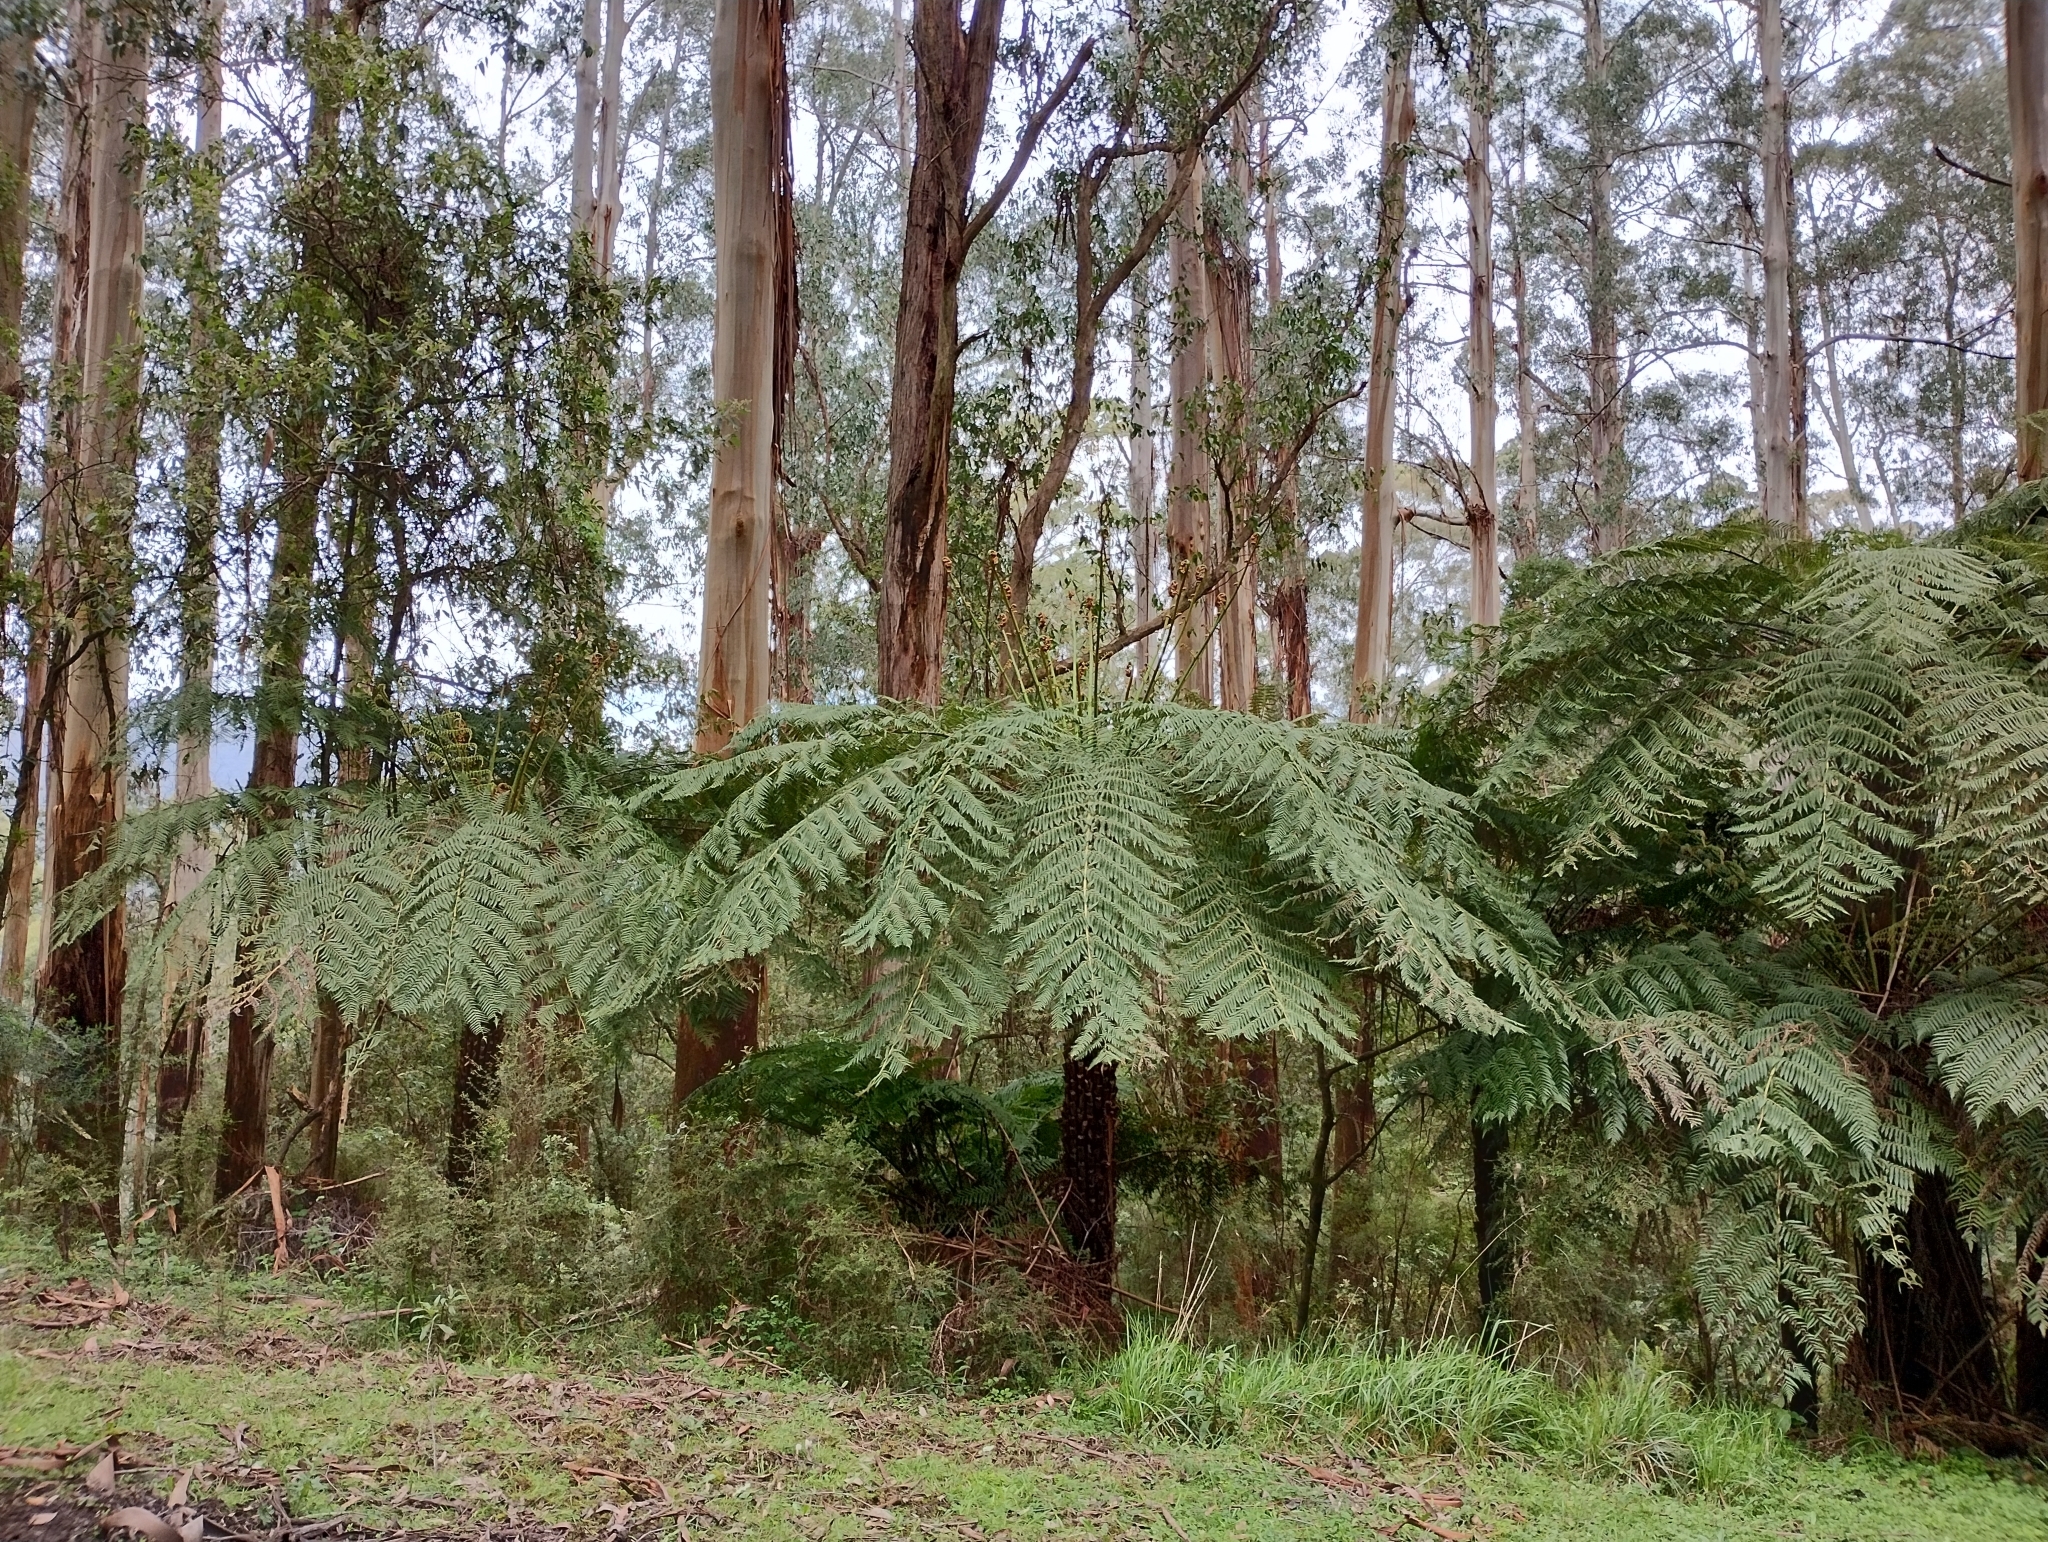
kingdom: Plantae
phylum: Tracheophyta
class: Polypodiopsida
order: Cyatheales
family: Cyatheaceae
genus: Alsophila
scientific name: Alsophila australis
